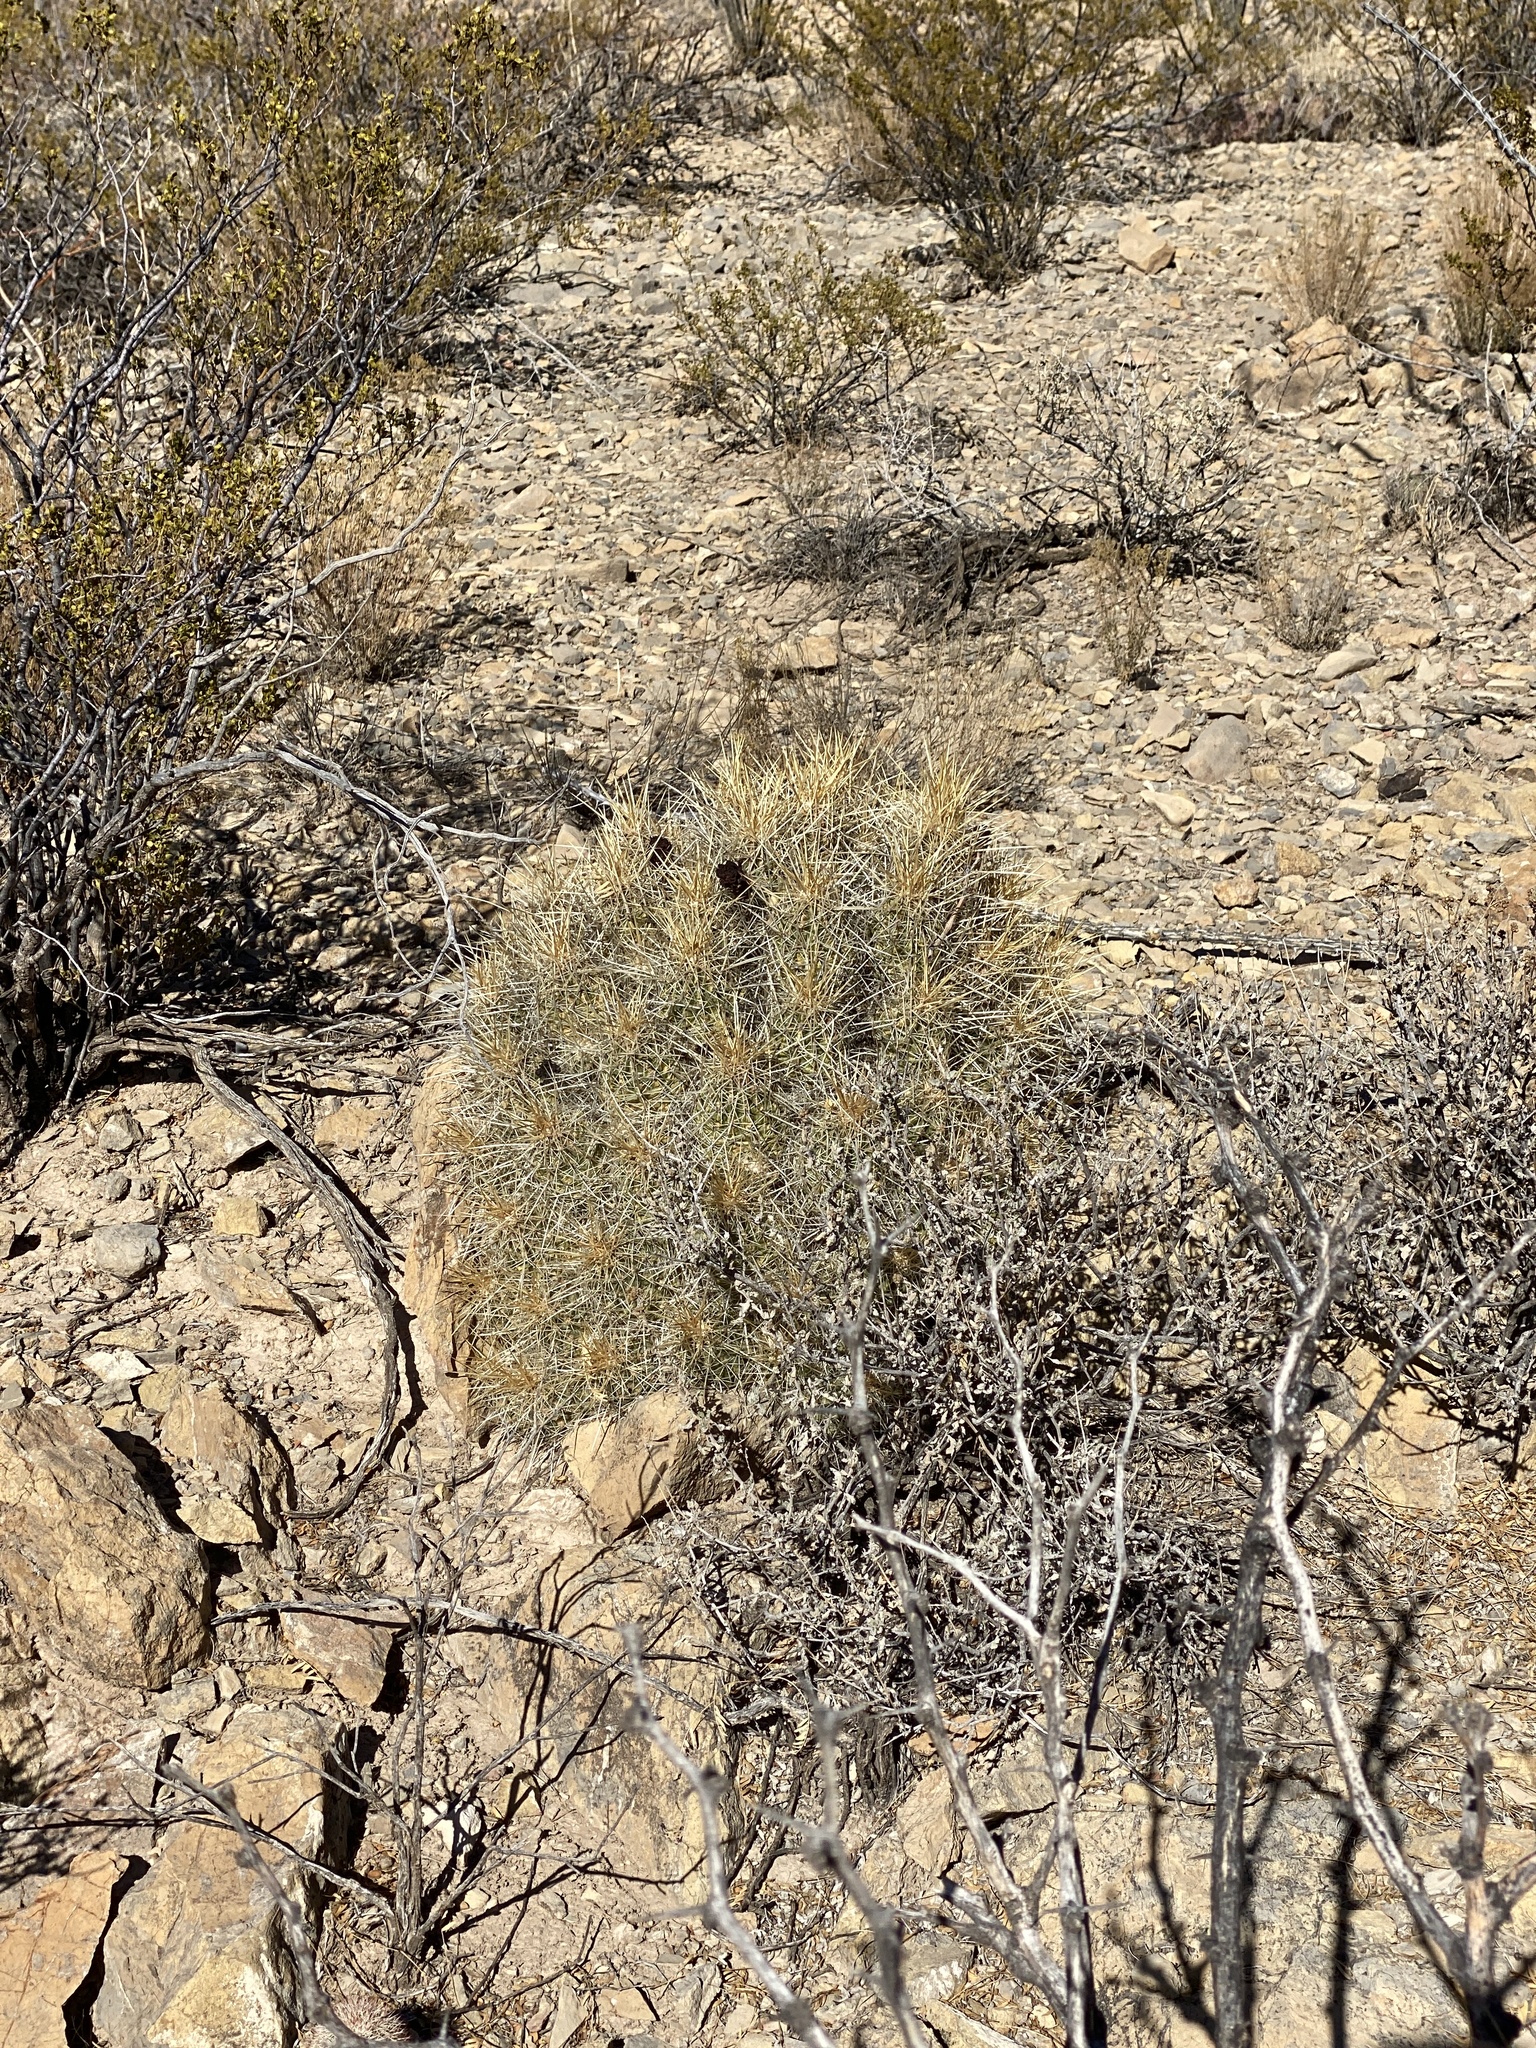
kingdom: Plantae
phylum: Tracheophyta
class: Magnoliopsida
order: Caryophyllales
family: Cactaceae
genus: Echinocereus
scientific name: Echinocereus stramineus
